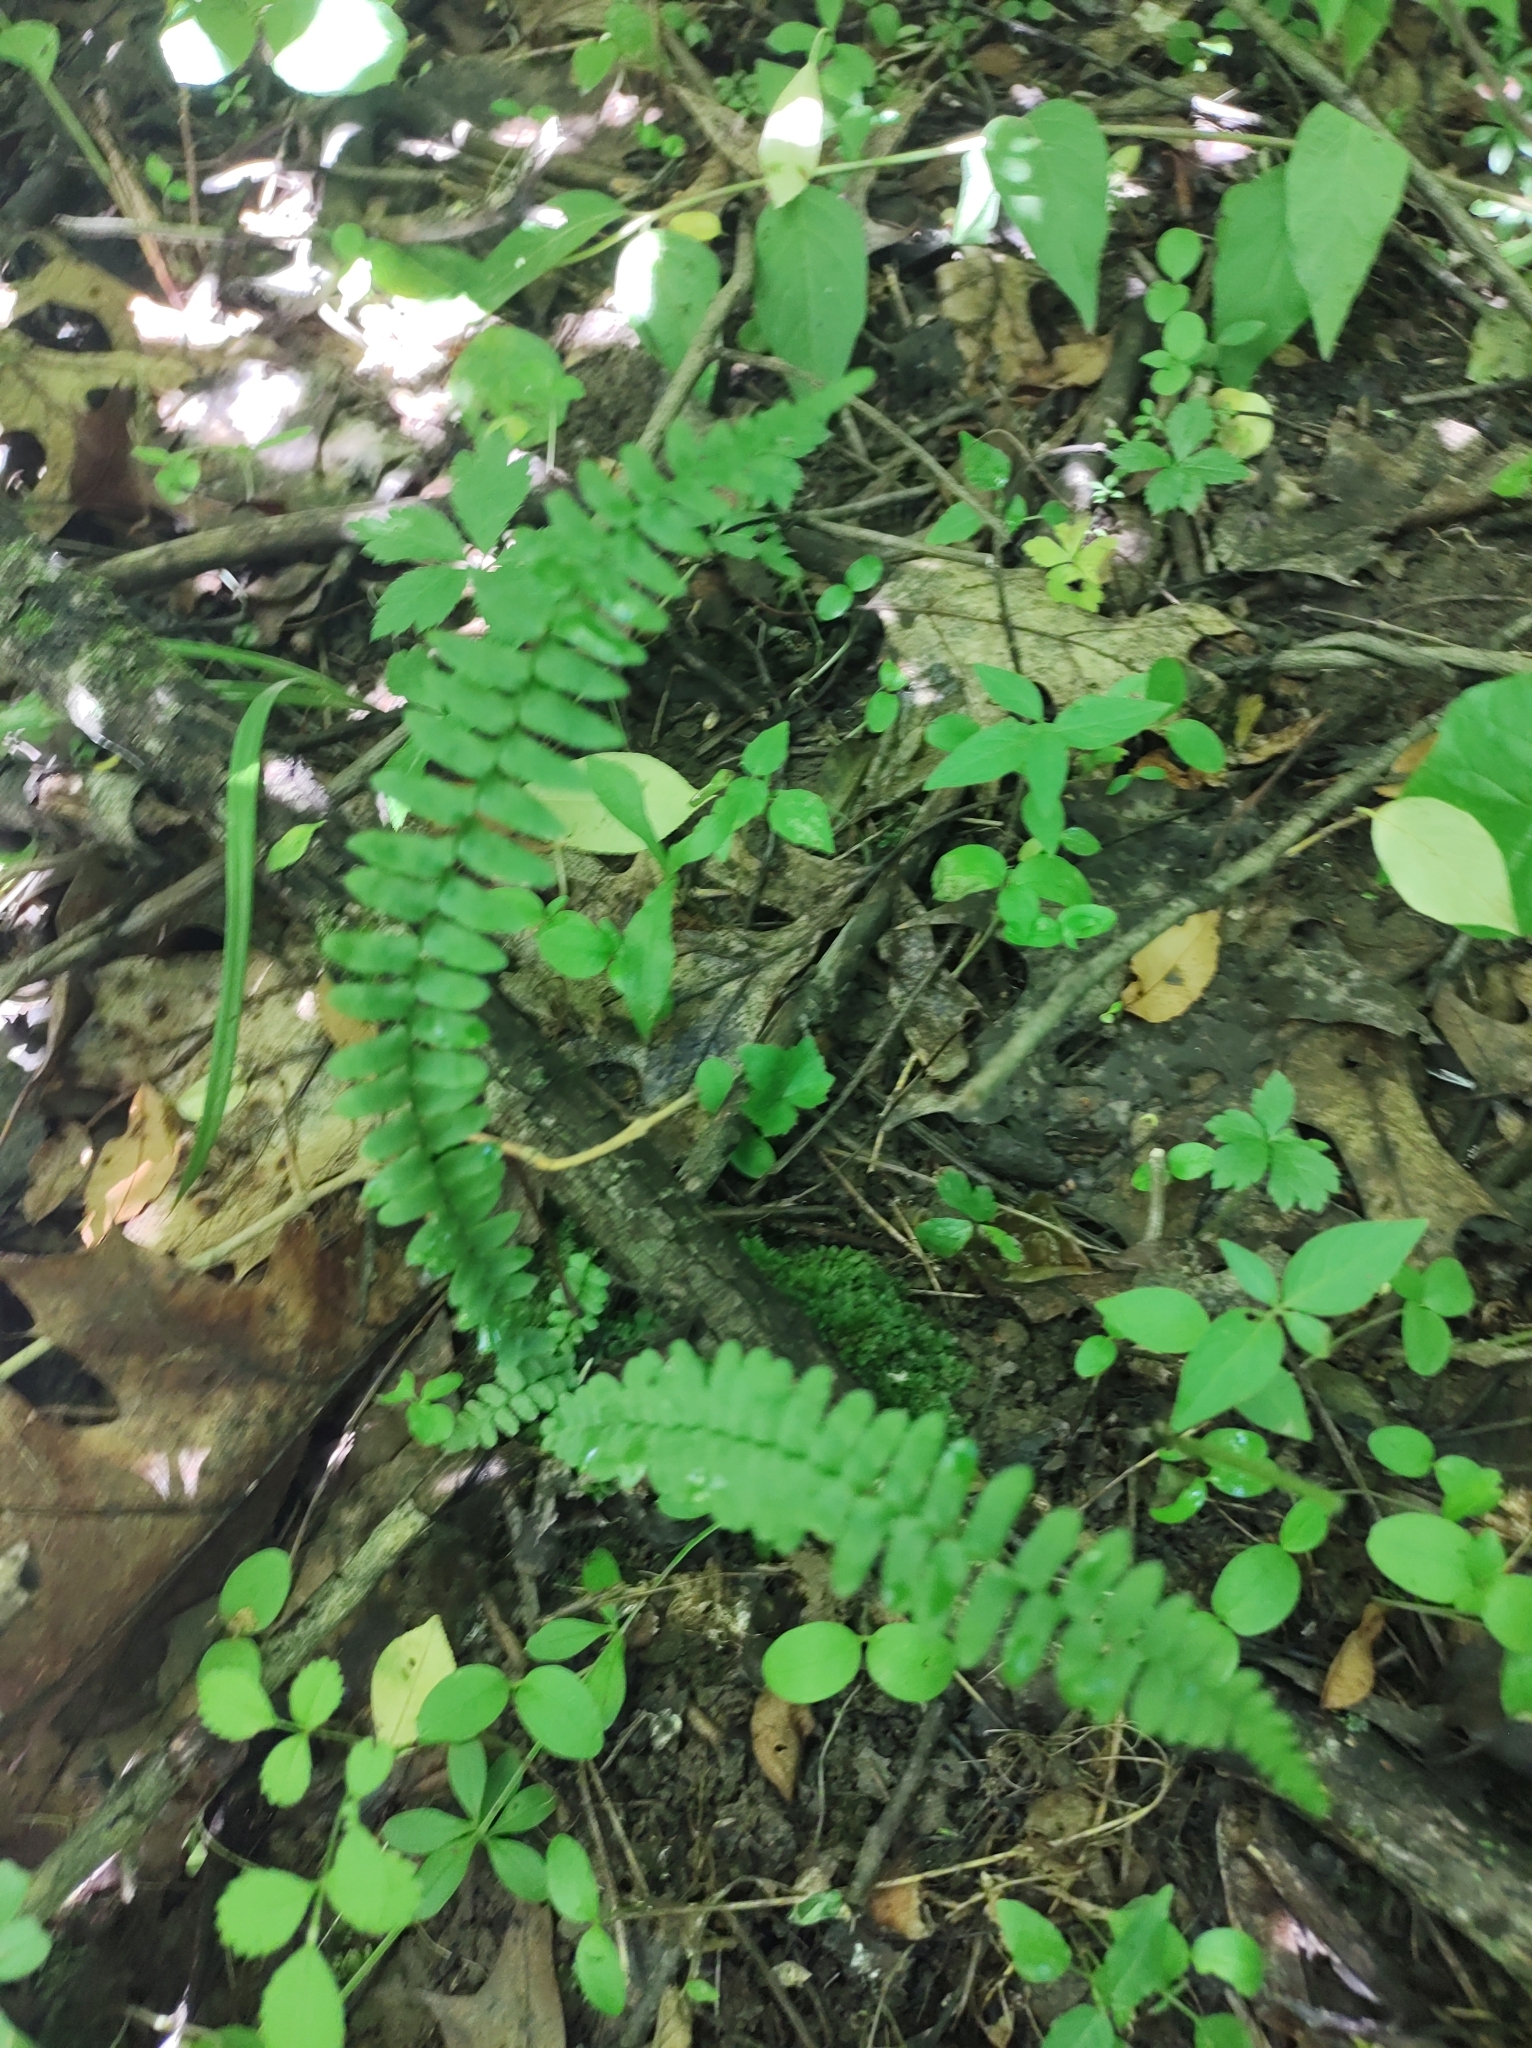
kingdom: Plantae
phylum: Tracheophyta
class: Polypodiopsida
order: Polypodiales
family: Aspleniaceae
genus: Asplenium
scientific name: Asplenium platyneuron
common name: Ebony spleenwort
